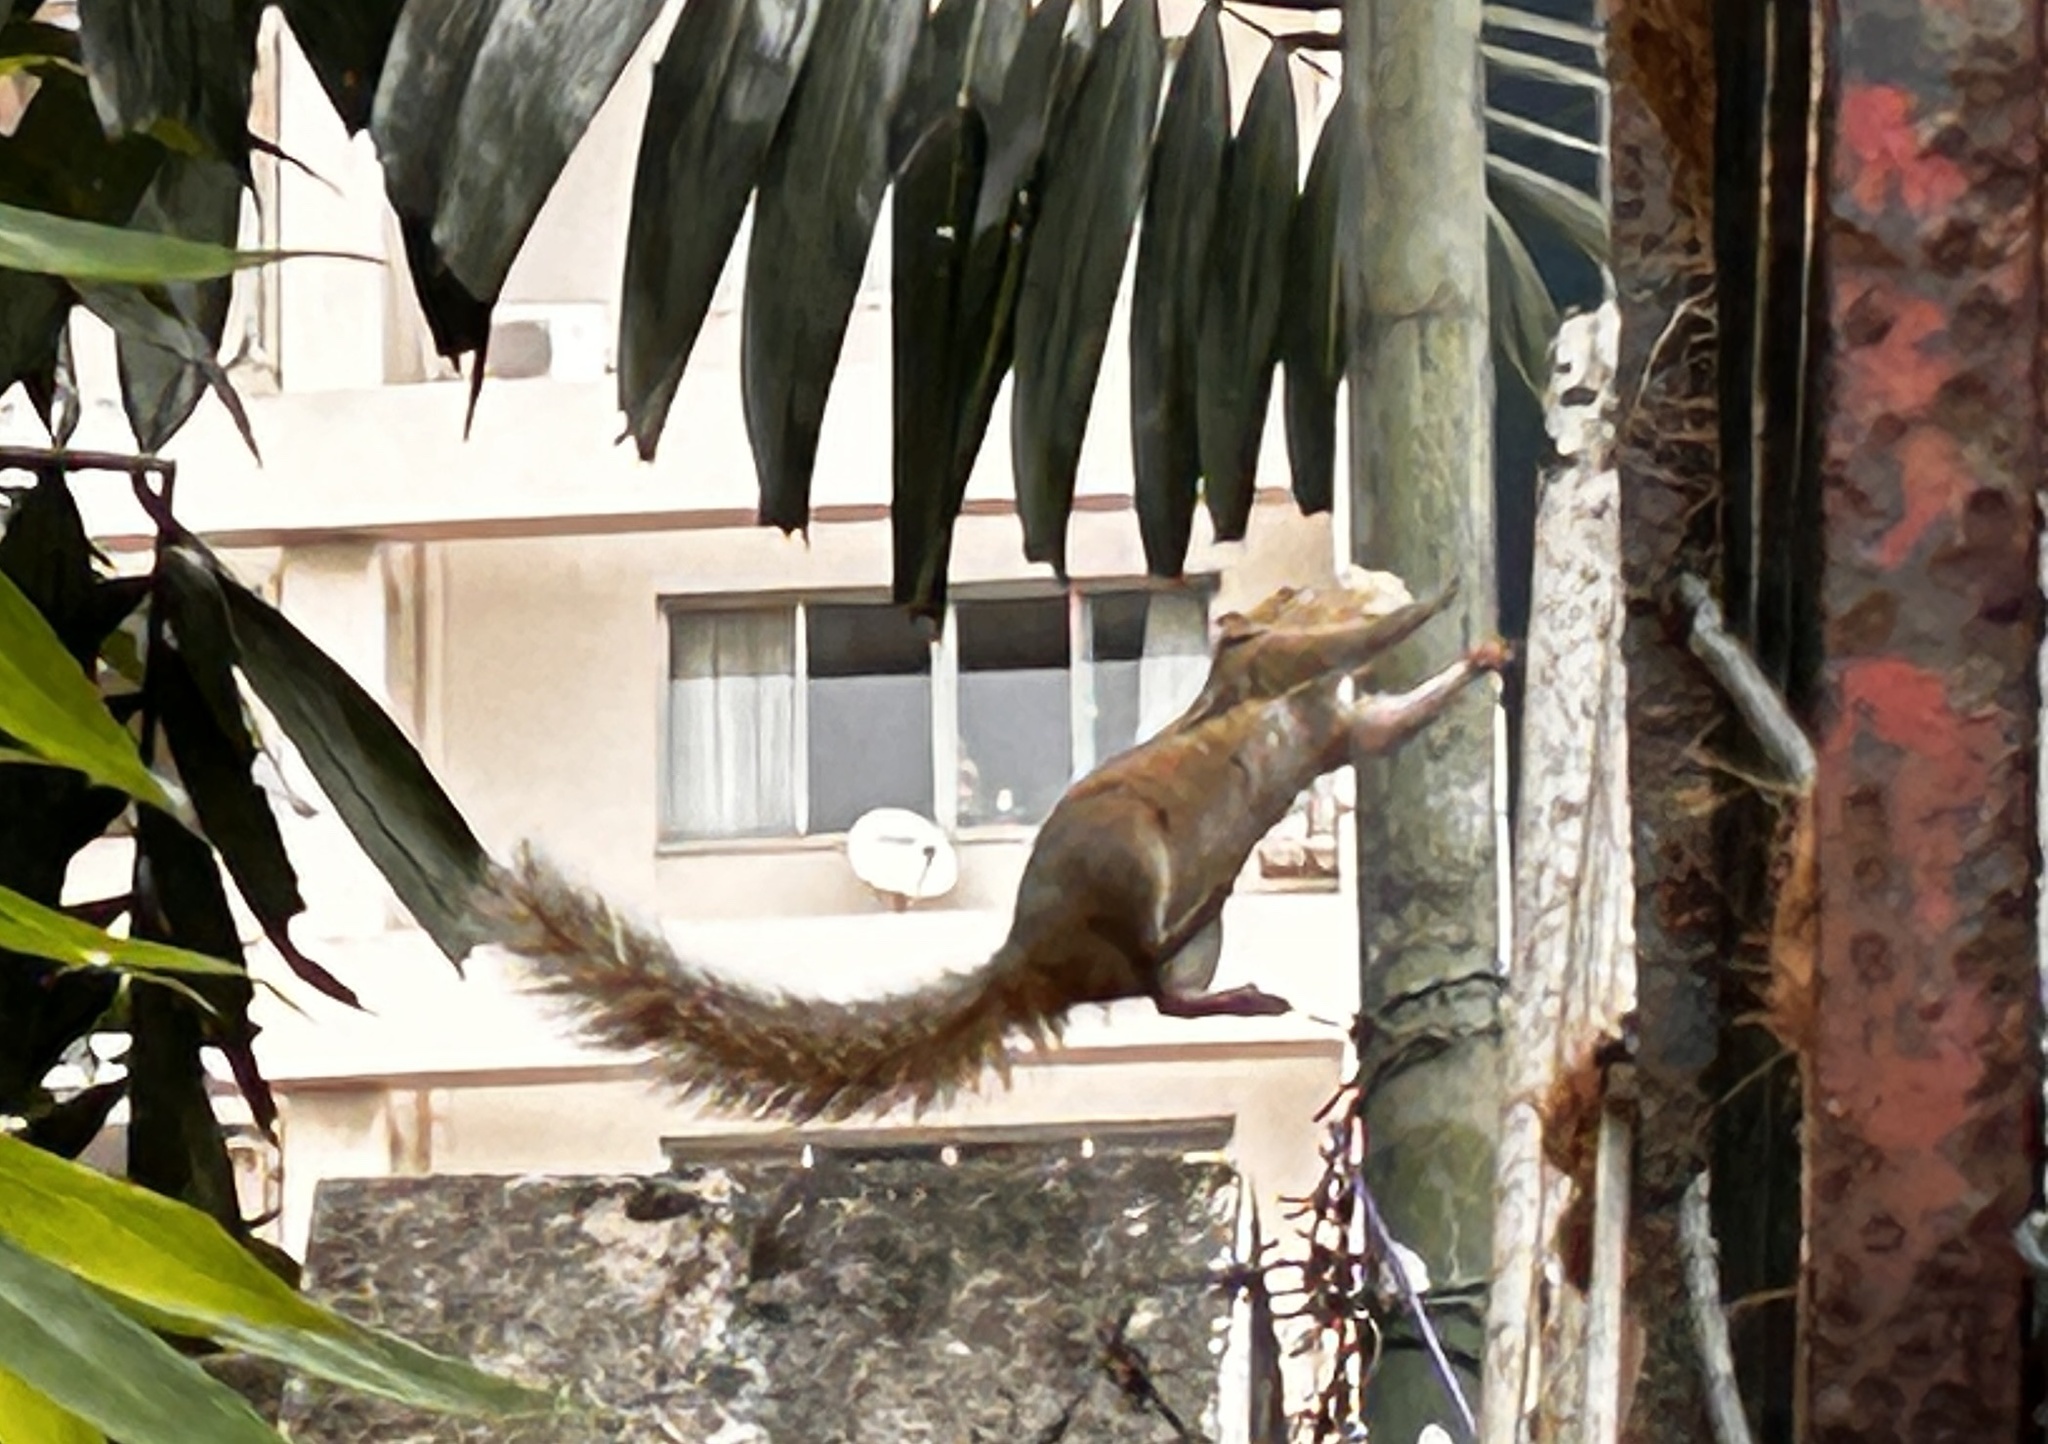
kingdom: Animalia
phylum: Chordata
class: Mammalia
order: Rodentia
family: Sciuridae
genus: Funambulus
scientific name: Funambulus palmarum
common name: Indian palm squirrel
